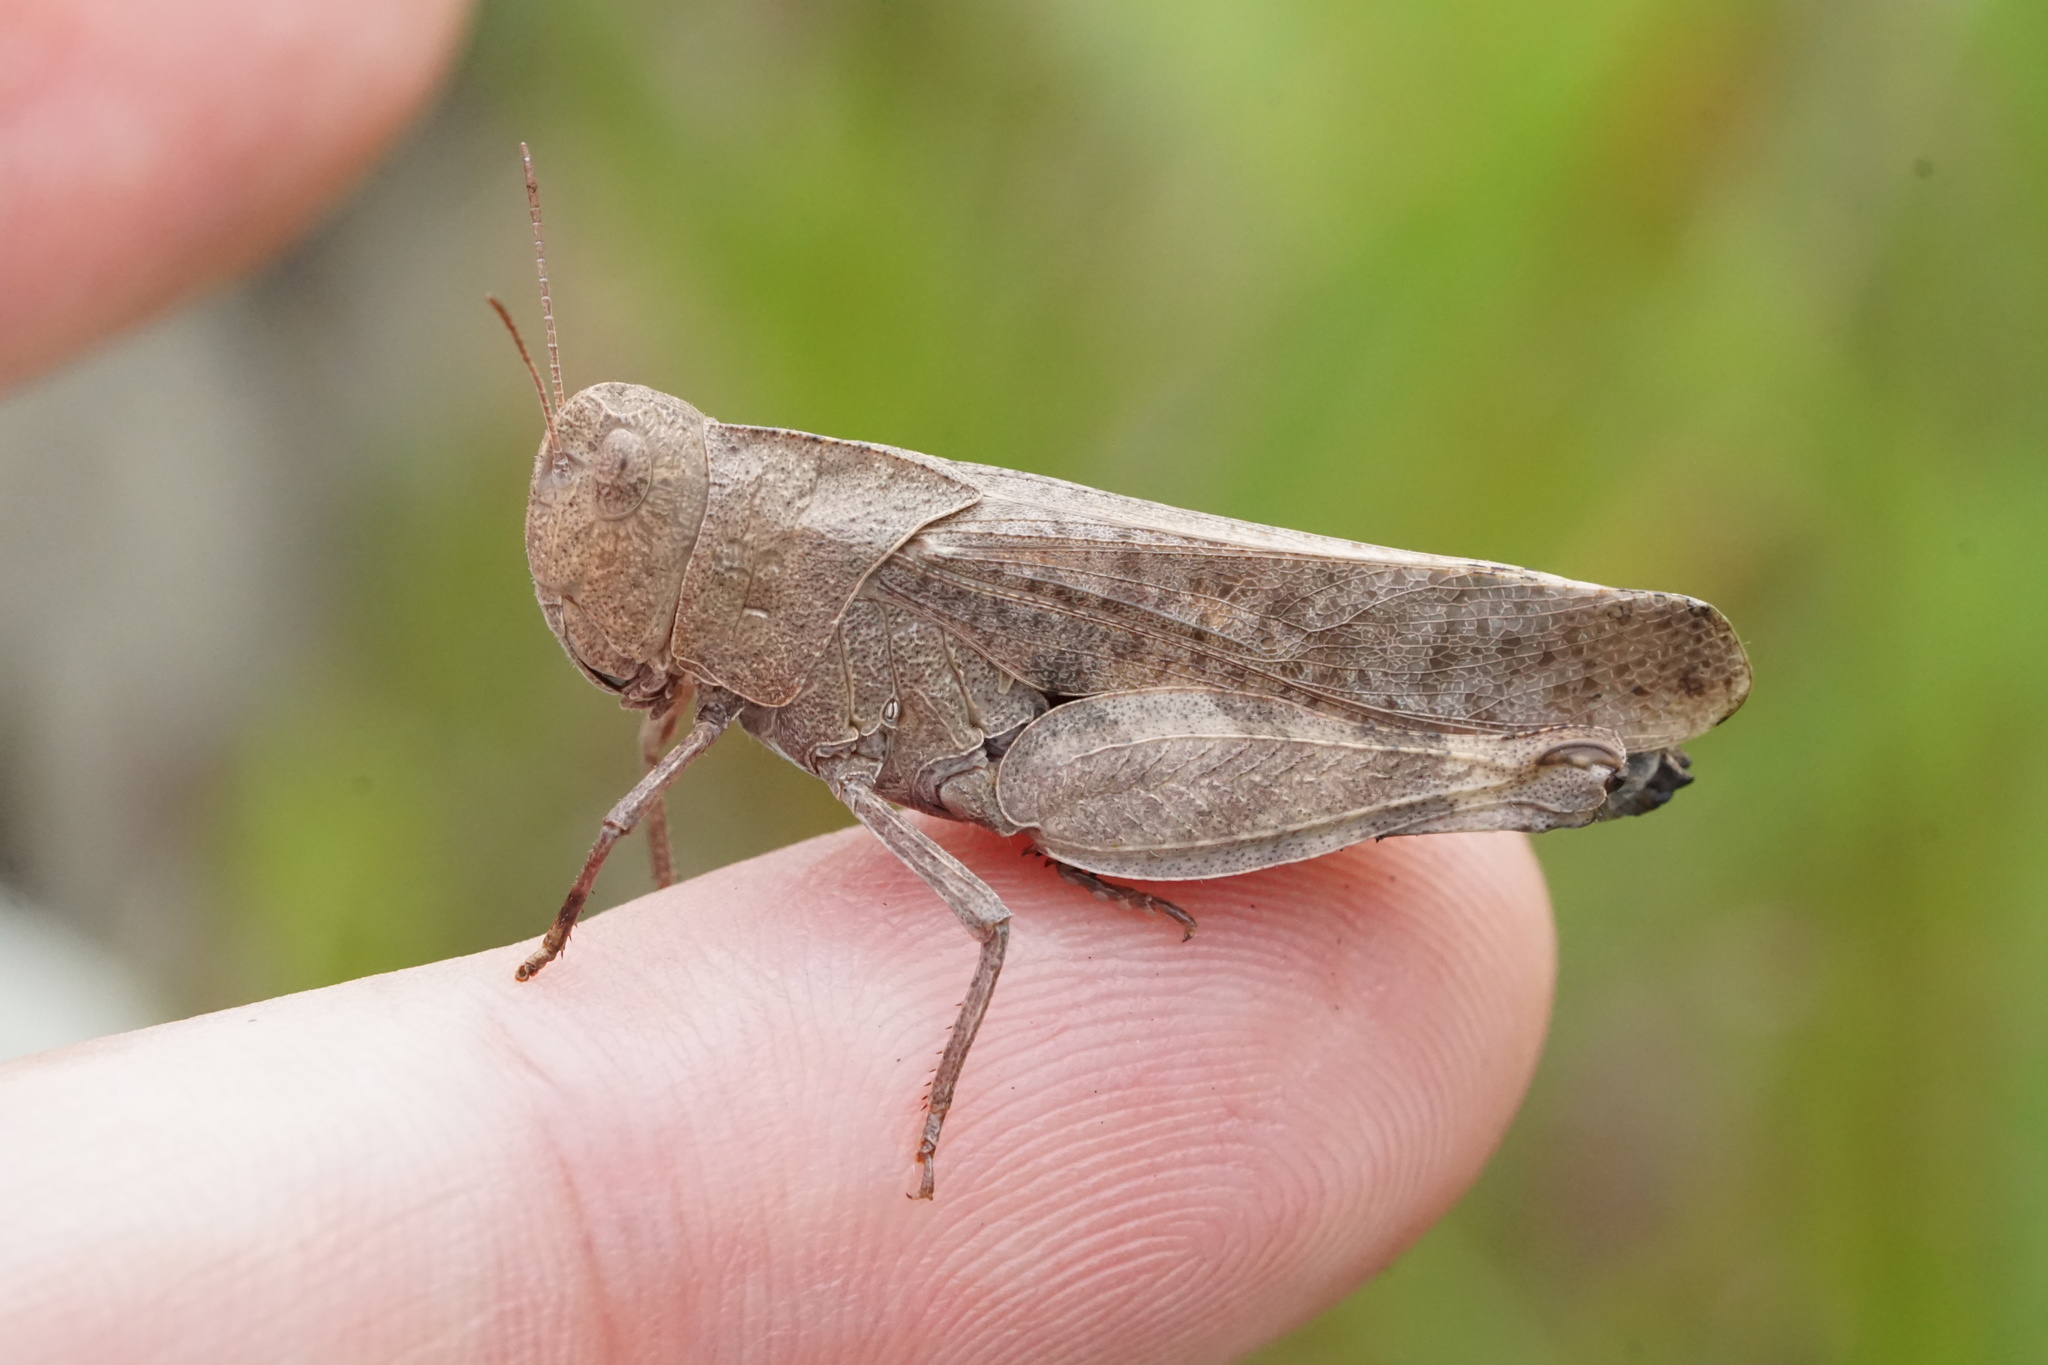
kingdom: Animalia
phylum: Arthropoda
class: Insecta
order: Orthoptera
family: Acrididae
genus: Arphia
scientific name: Arphia sulphurea
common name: Spring yellow-winged locust
